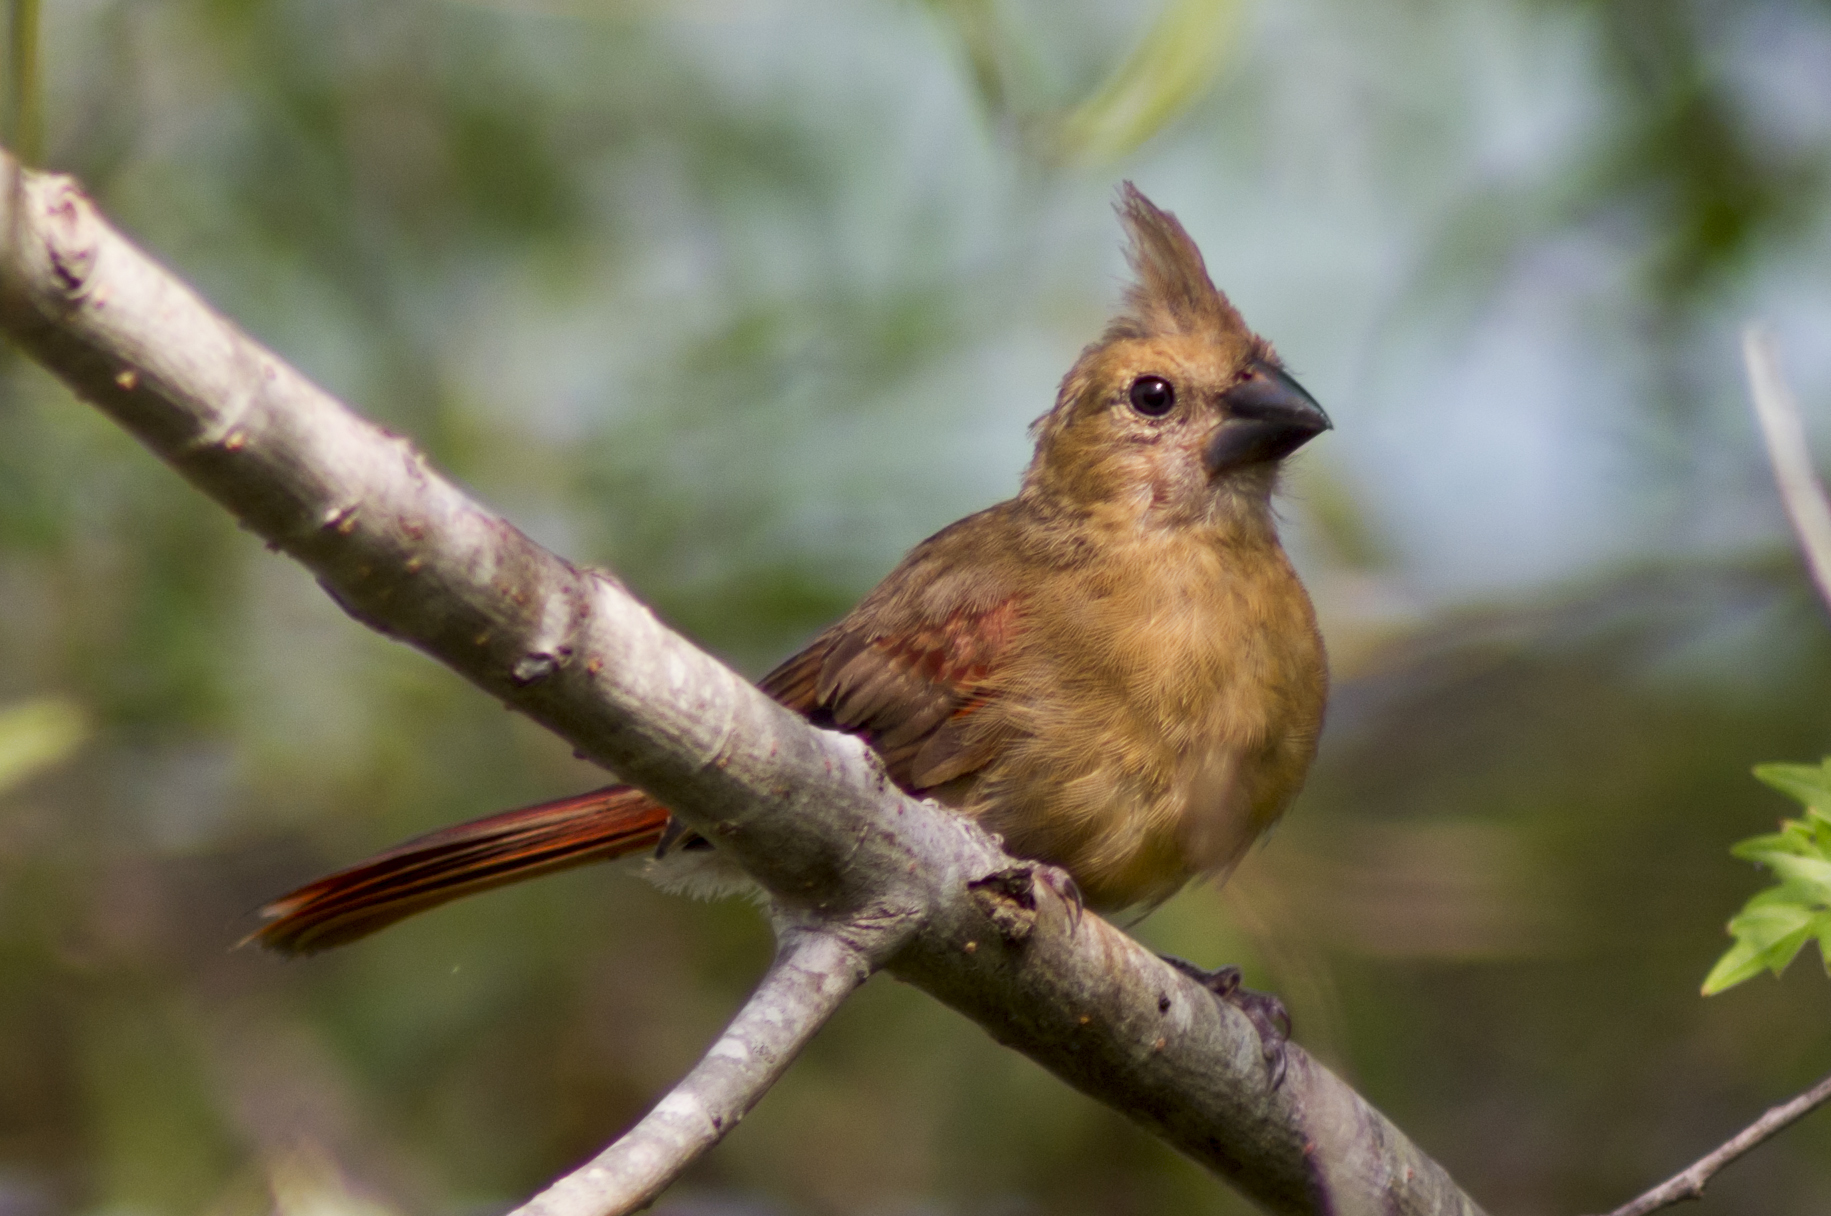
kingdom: Animalia
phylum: Chordata
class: Aves
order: Passeriformes
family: Cardinalidae
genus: Cardinalis
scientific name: Cardinalis cardinalis
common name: Northern cardinal
